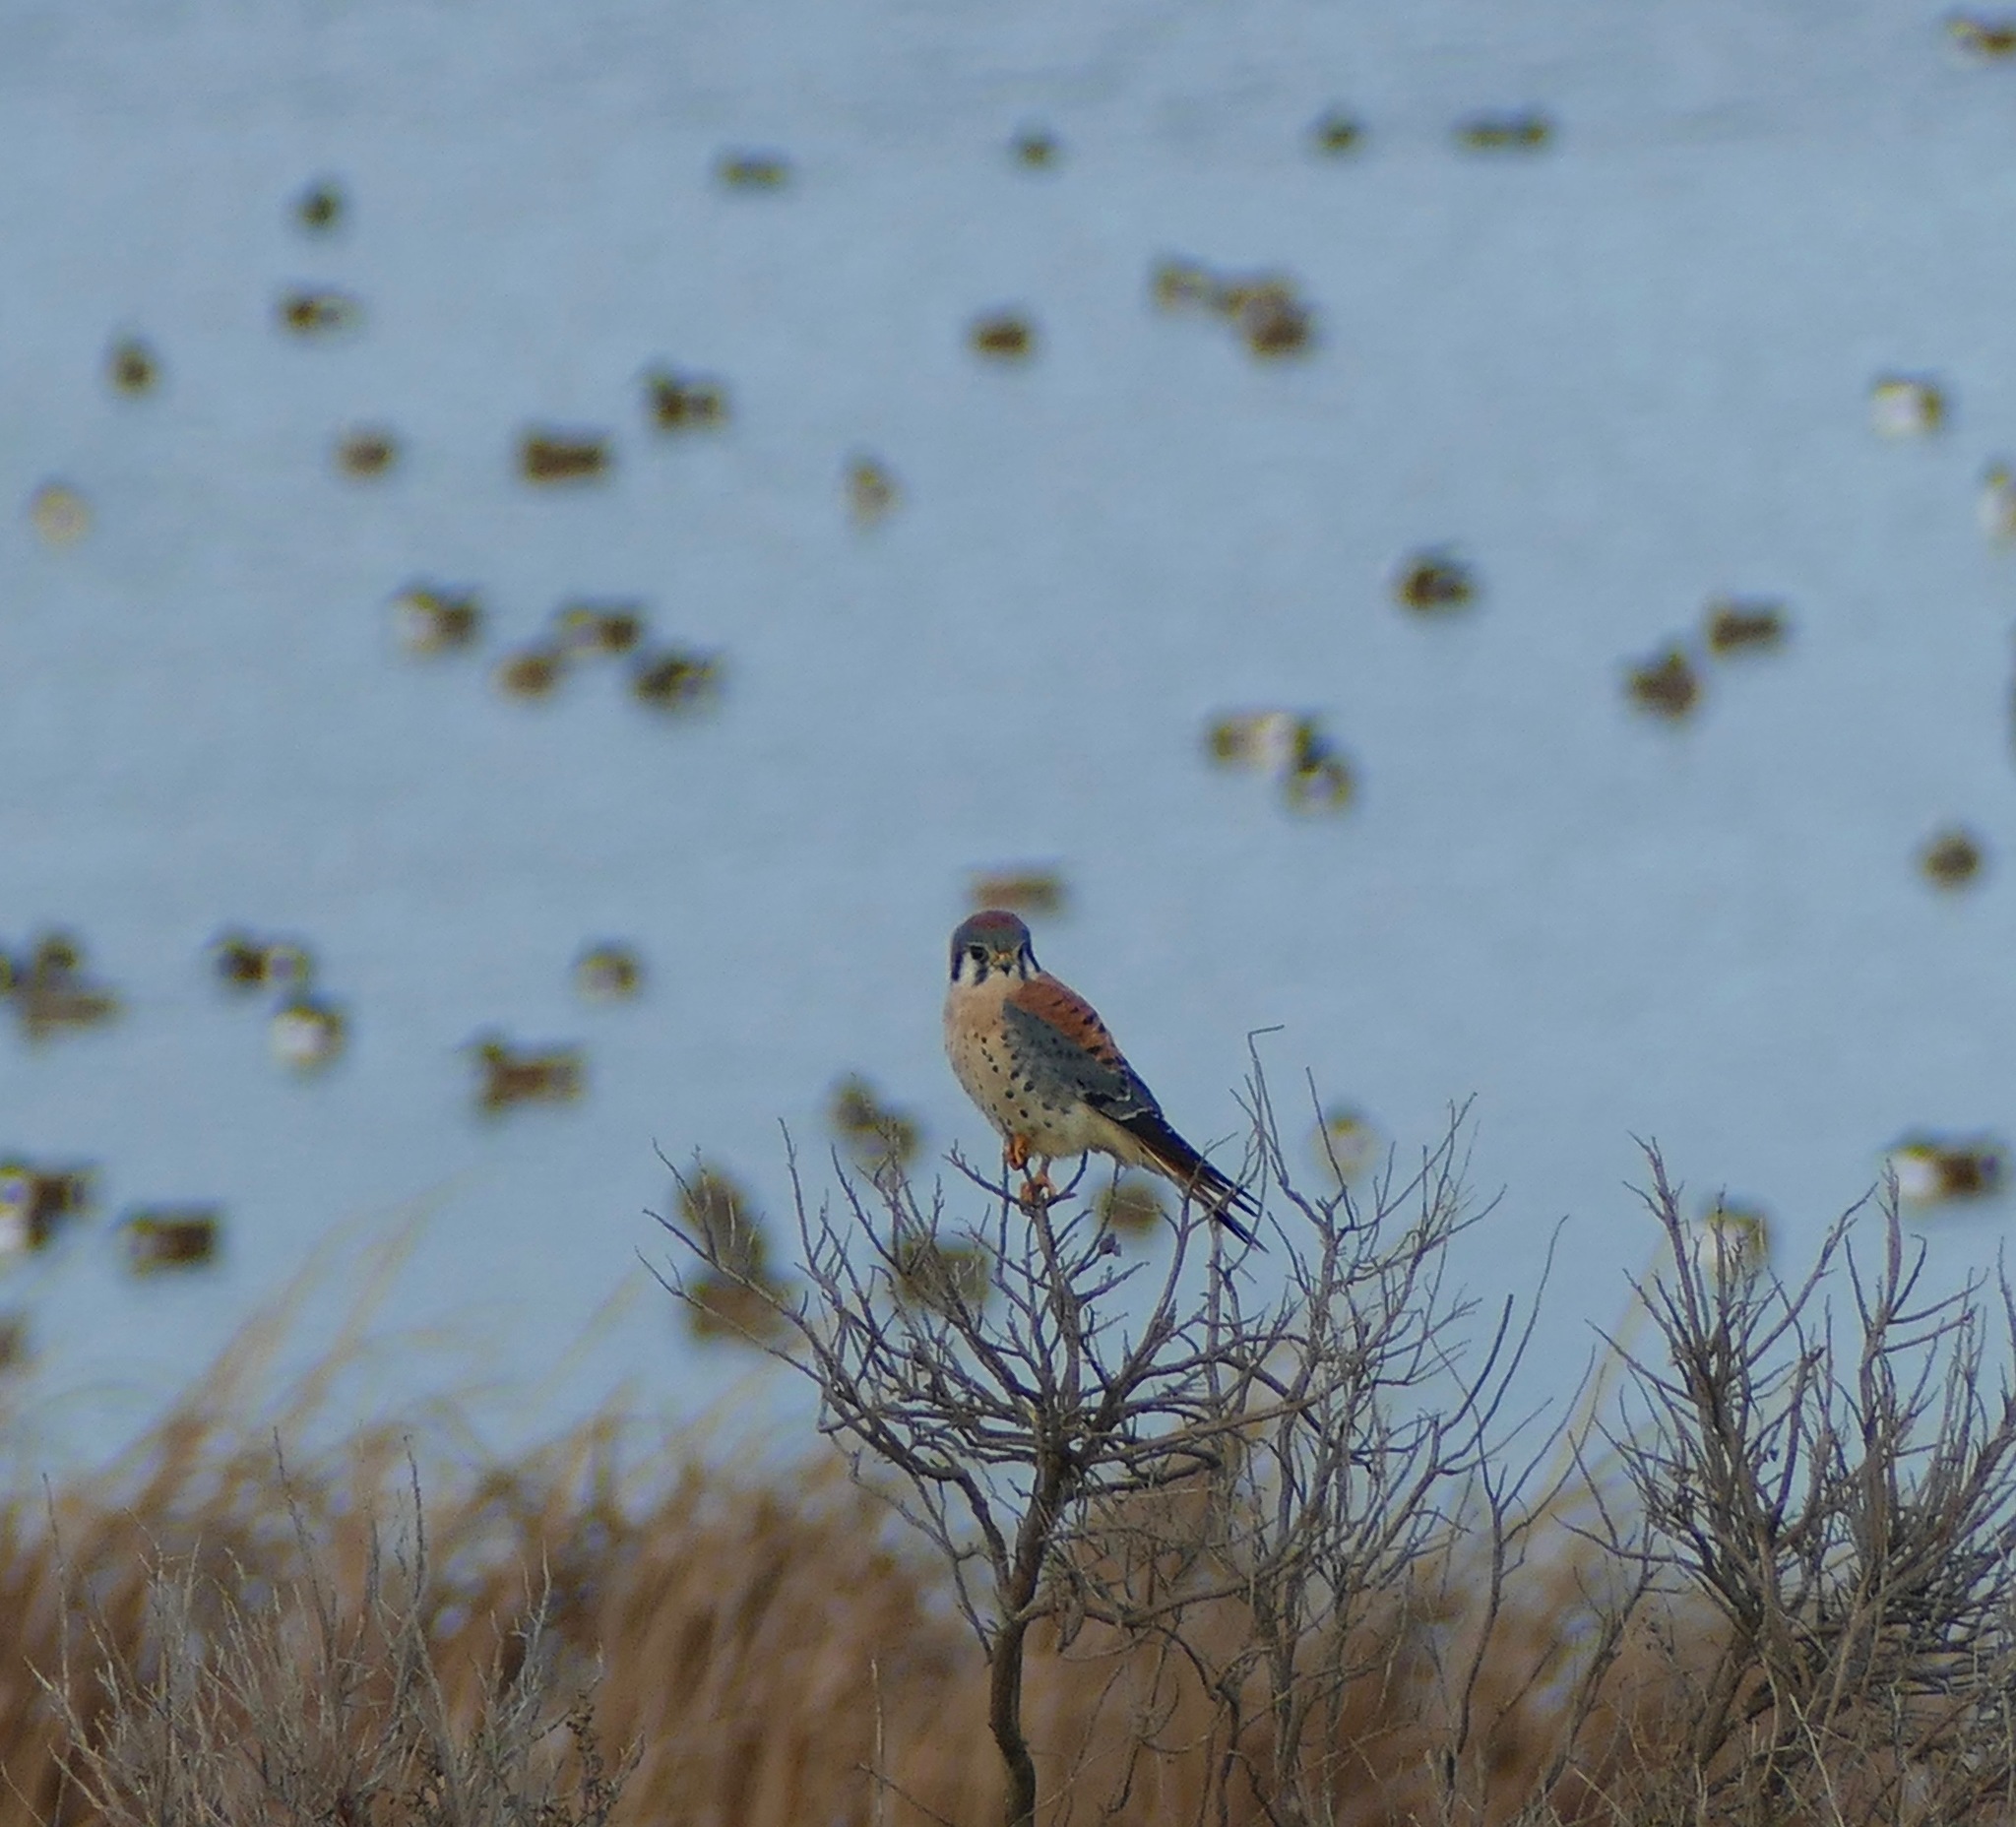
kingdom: Animalia
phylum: Chordata
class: Aves
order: Falconiformes
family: Falconidae
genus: Falco
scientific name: Falco sparverius
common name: American kestrel
